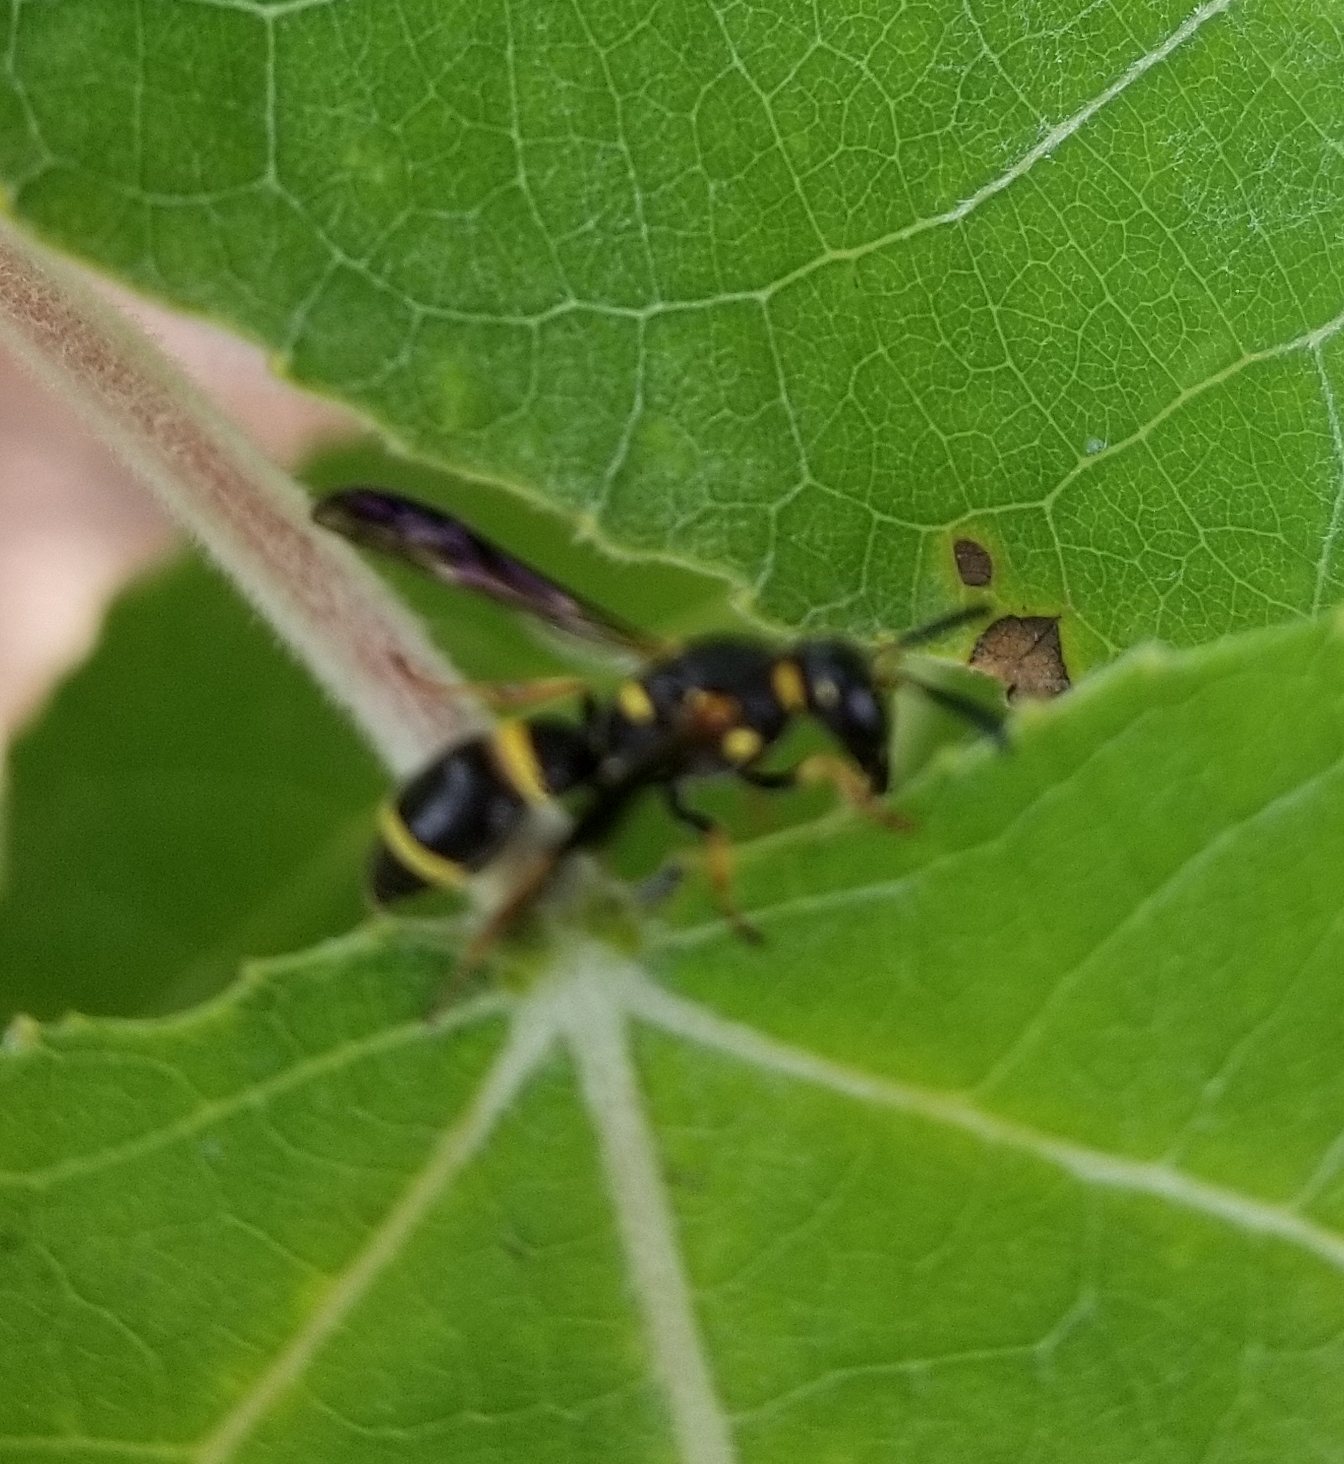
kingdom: Animalia
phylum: Arthropoda
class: Insecta
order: Hymenoptera
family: Eumenidae
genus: Parancistrocerus
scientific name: Parancistrocerus perennis
